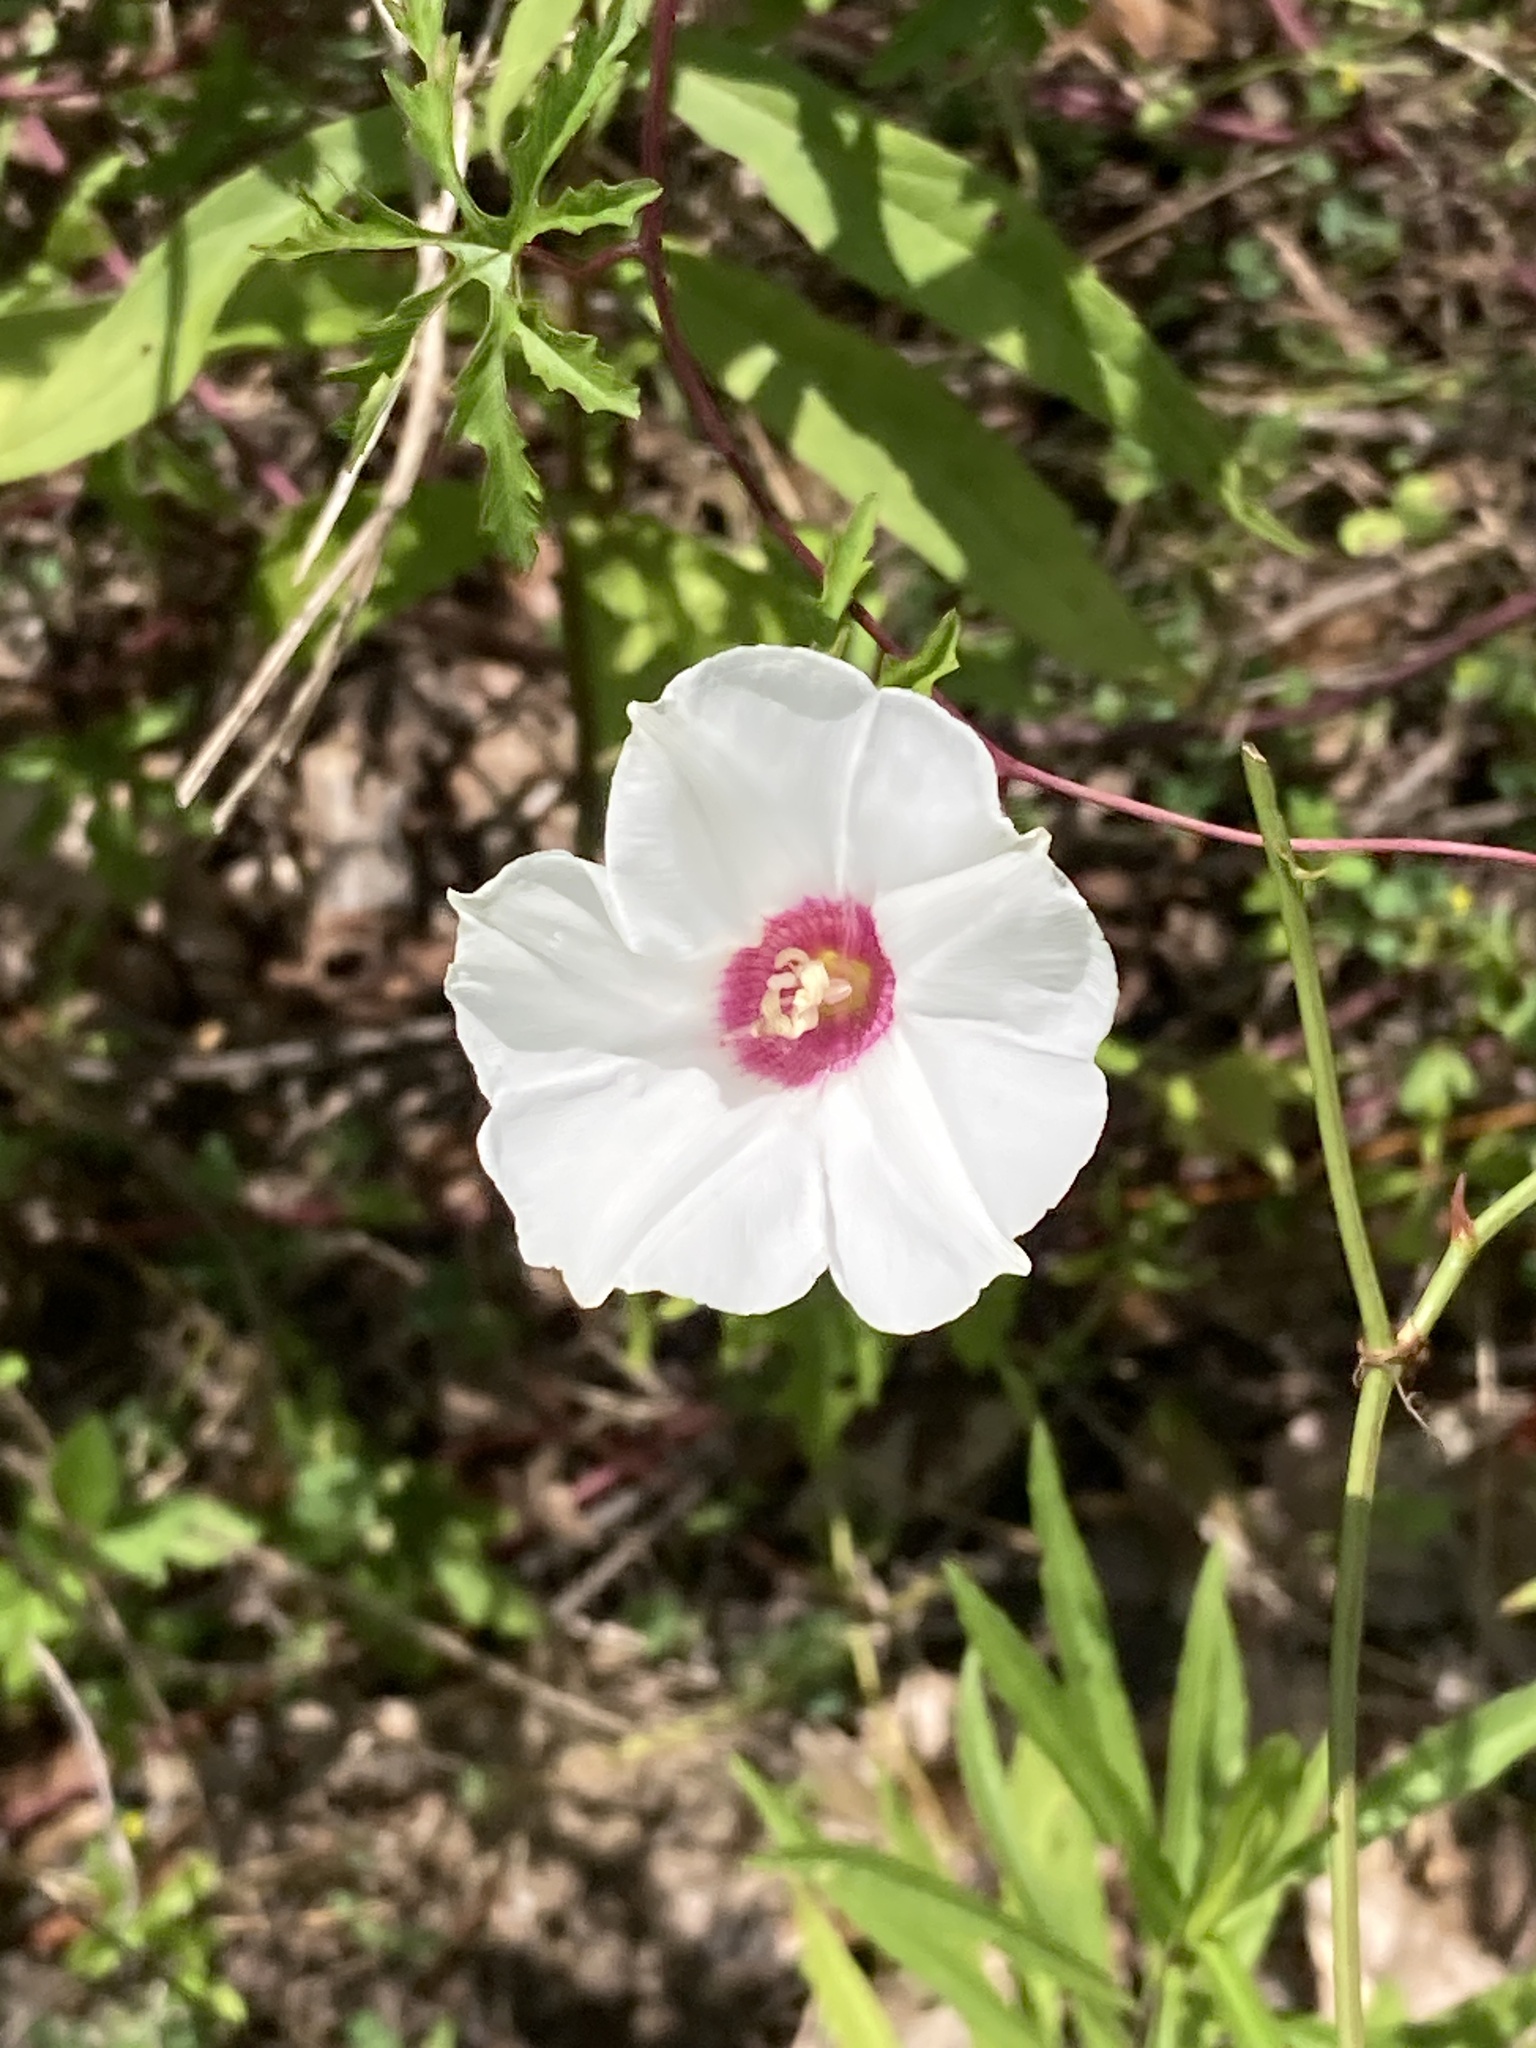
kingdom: Plantae
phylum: Tracheophyta
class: Magnoliopsida
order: Solanales
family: Convolvulaceae
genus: Distimake
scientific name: Distimake dissectus
